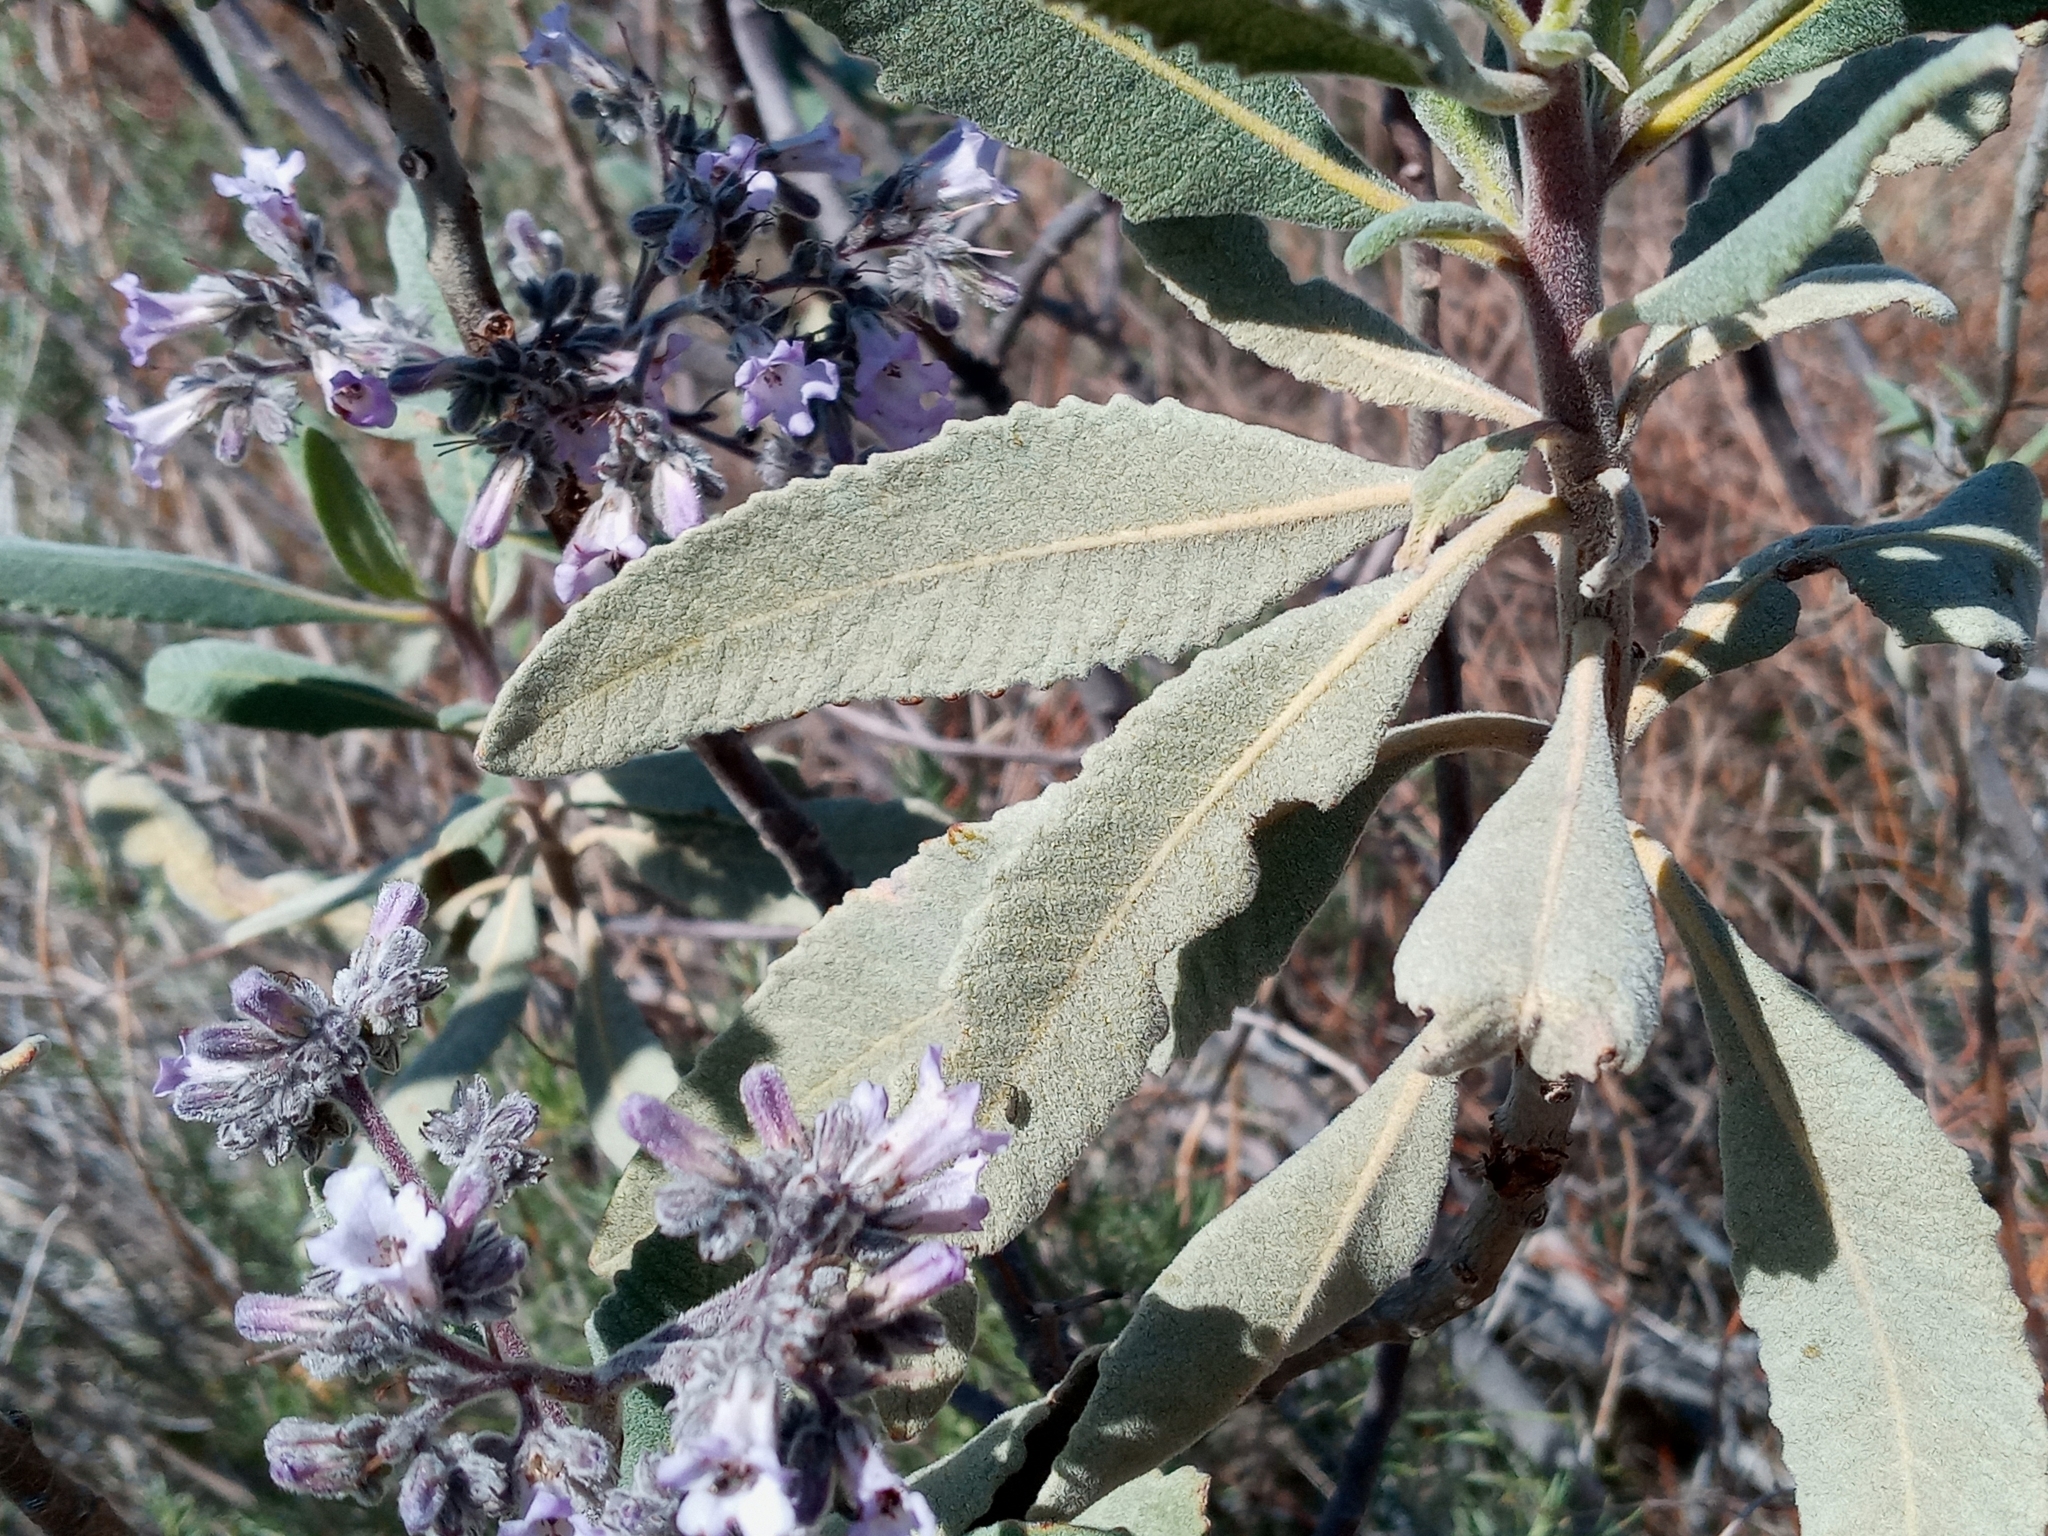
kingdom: Plantae
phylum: Tracheophyta
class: Magnoliopsida
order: Boraginales
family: Namaceae
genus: Eriodictyon
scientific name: Eriodictyon crassifolium
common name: Thick-leaf yerba-santa
